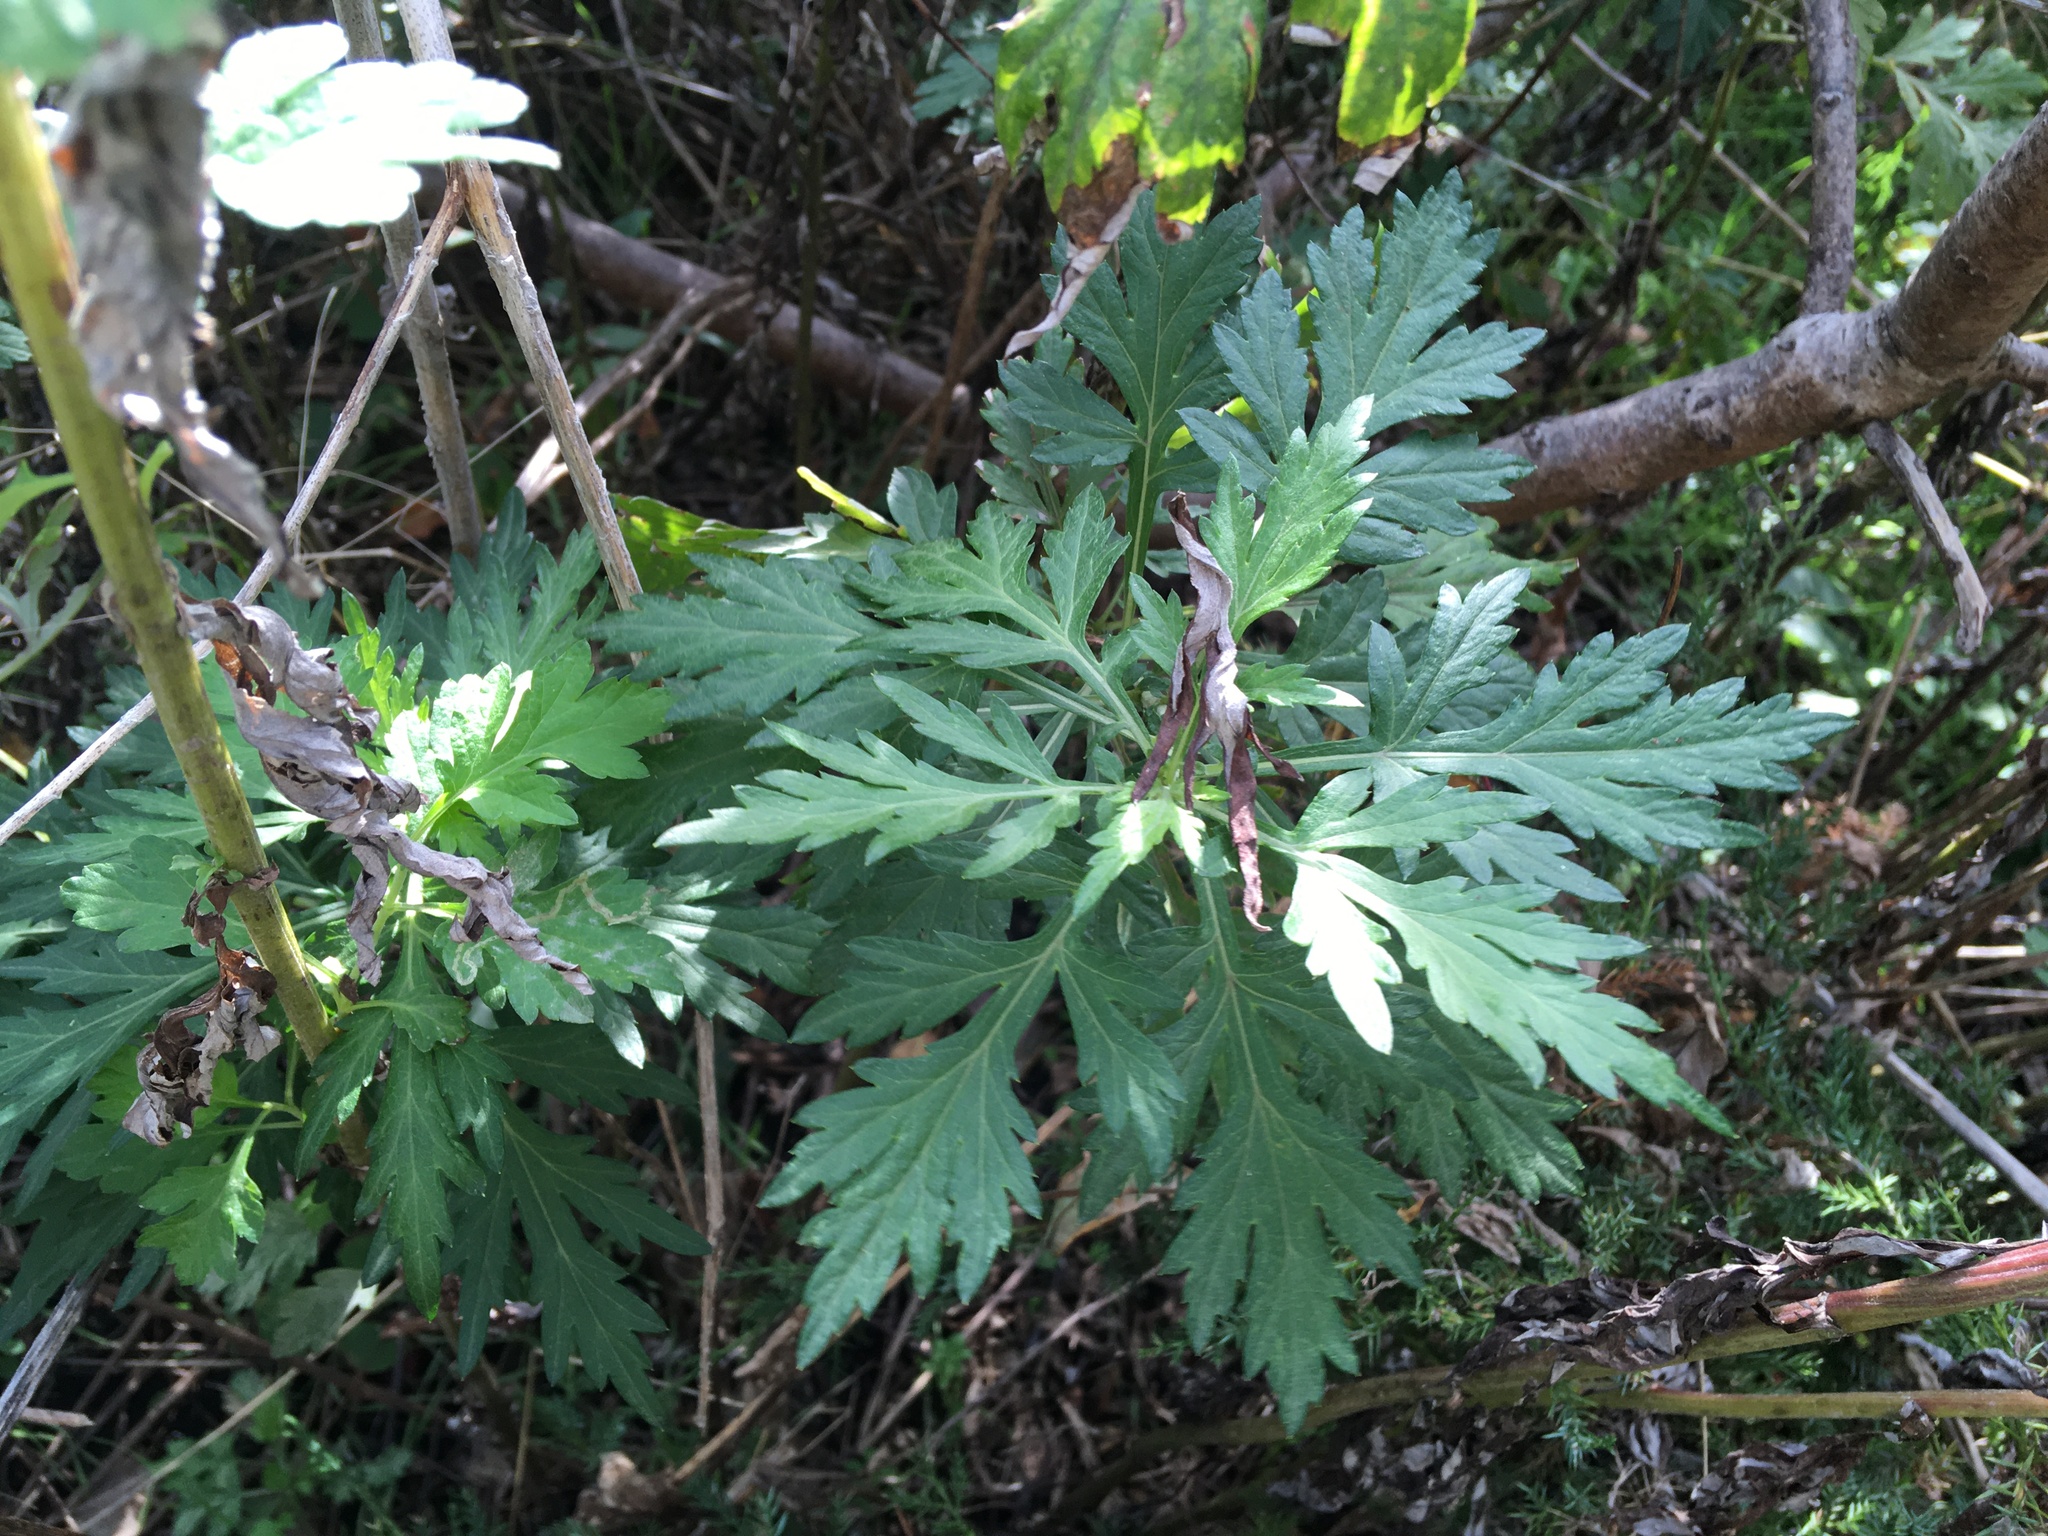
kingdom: Plantae
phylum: Tracheophyta
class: Magnoliopsida
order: Asterales
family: Asteraceae
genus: Artemisia
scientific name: Artemisia vulgaris
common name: Mugwort
